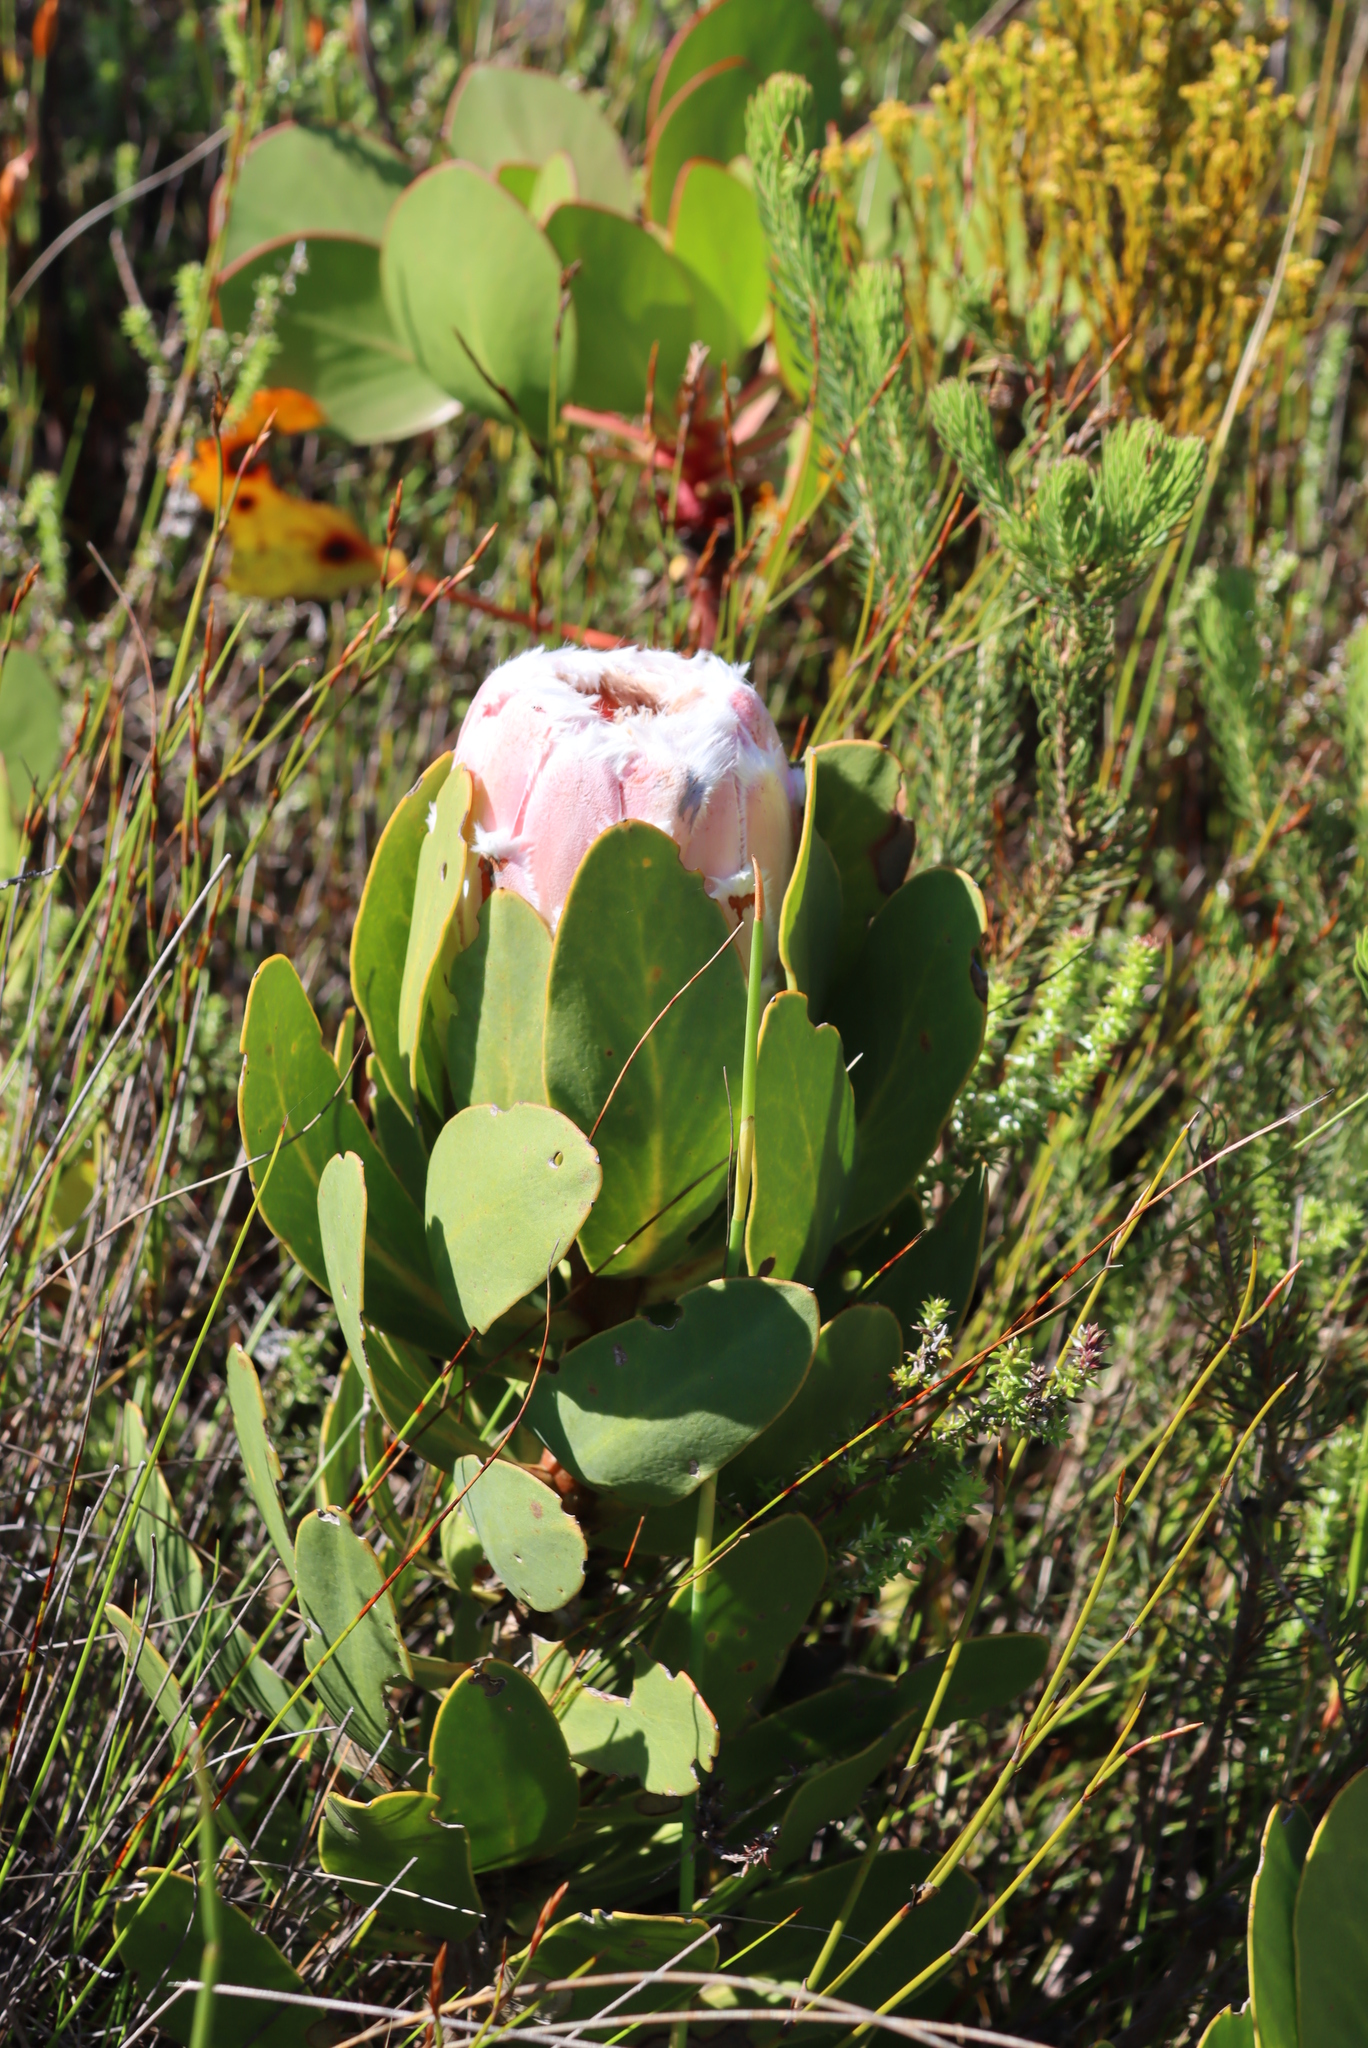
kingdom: Plantae
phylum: Tracheophyta
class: Magnoliopsida
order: Proteales
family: Proteaceae
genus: Protea
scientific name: Protea speciosa
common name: Brown-beard sugarbush
